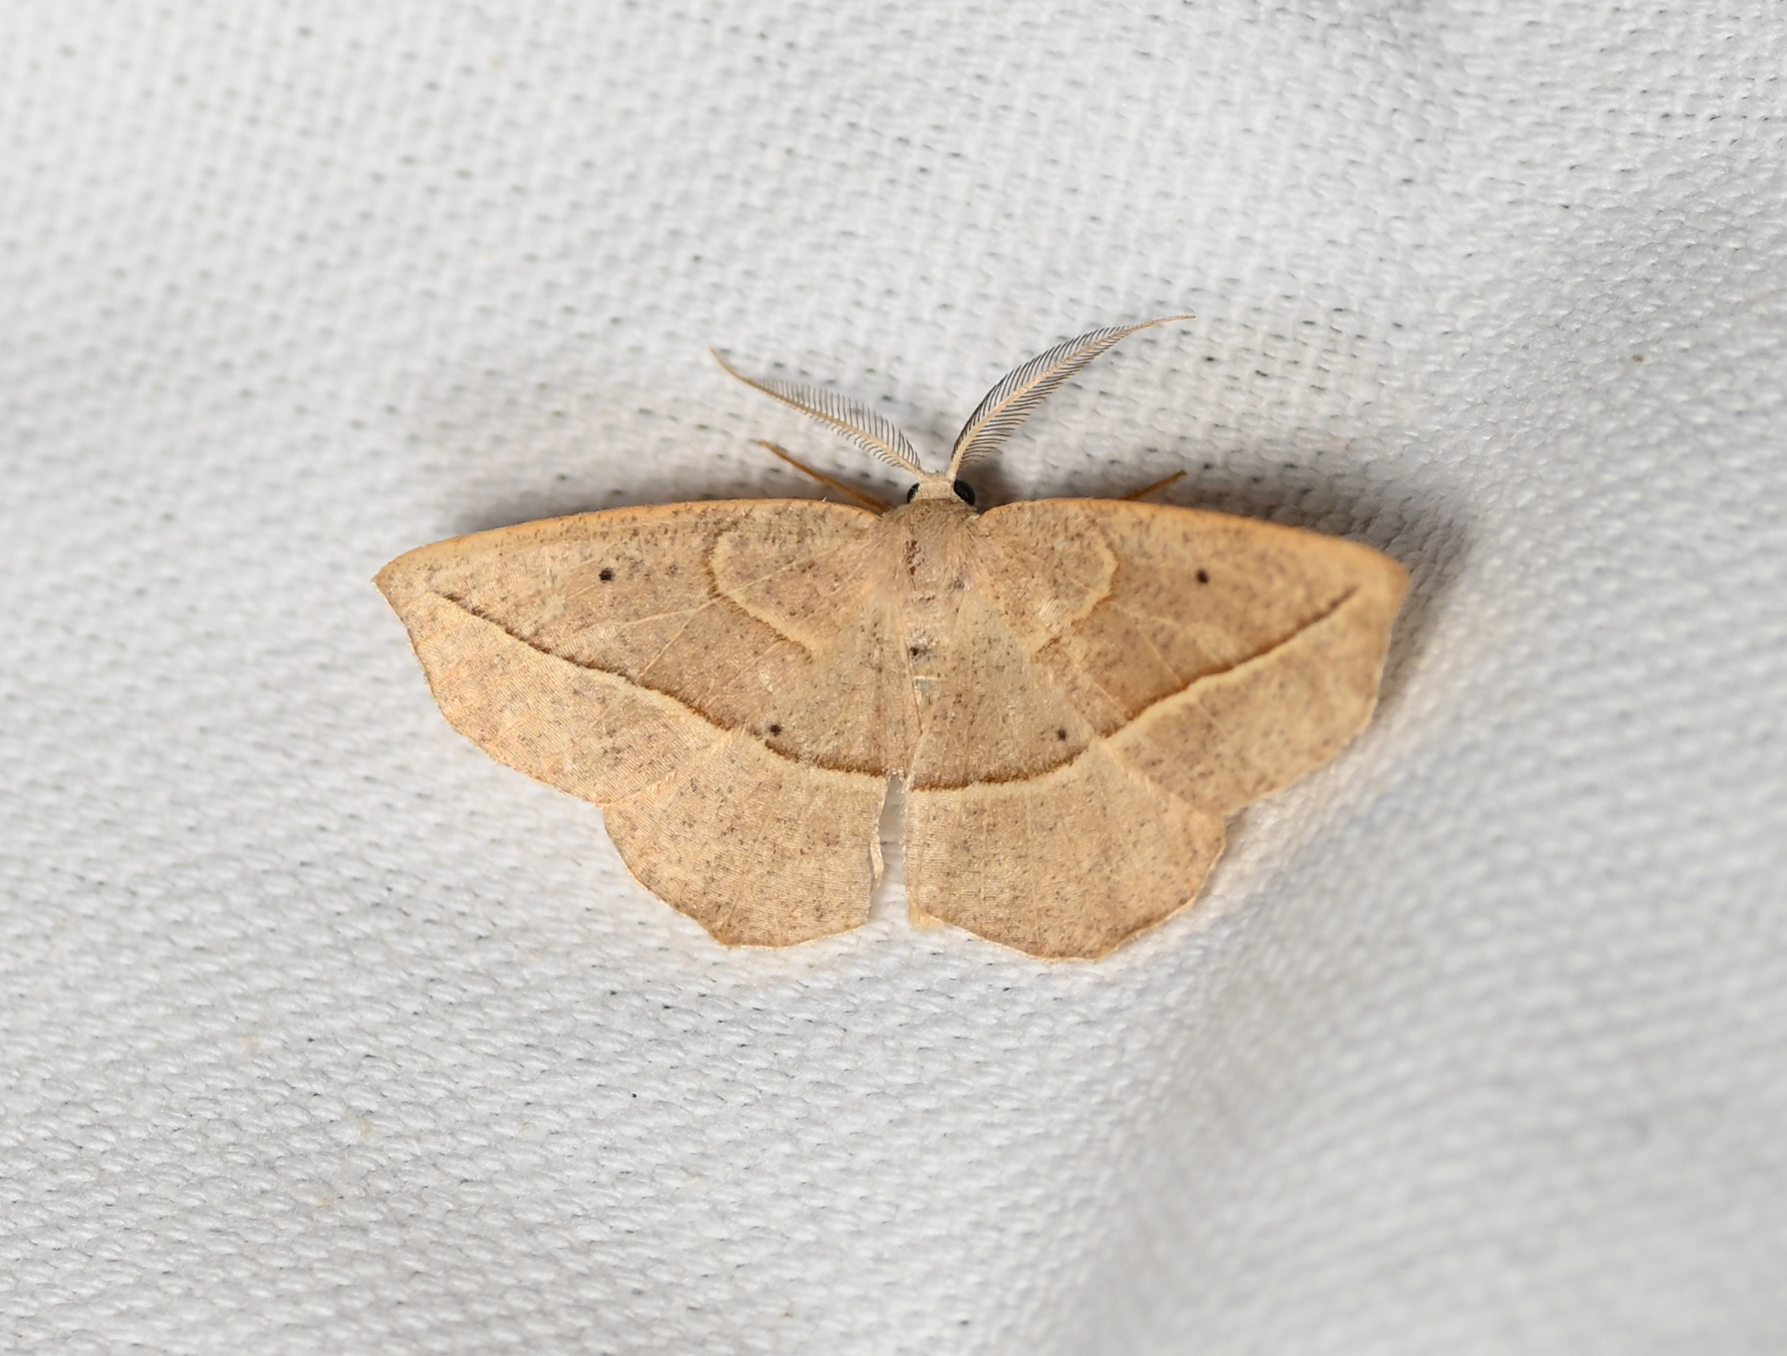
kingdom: Animalia
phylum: Arthropoda
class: Insecta
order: Lepidoptera
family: Geometridae
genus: Eusarca
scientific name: Eusarca confusaria
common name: Confused eusarca
